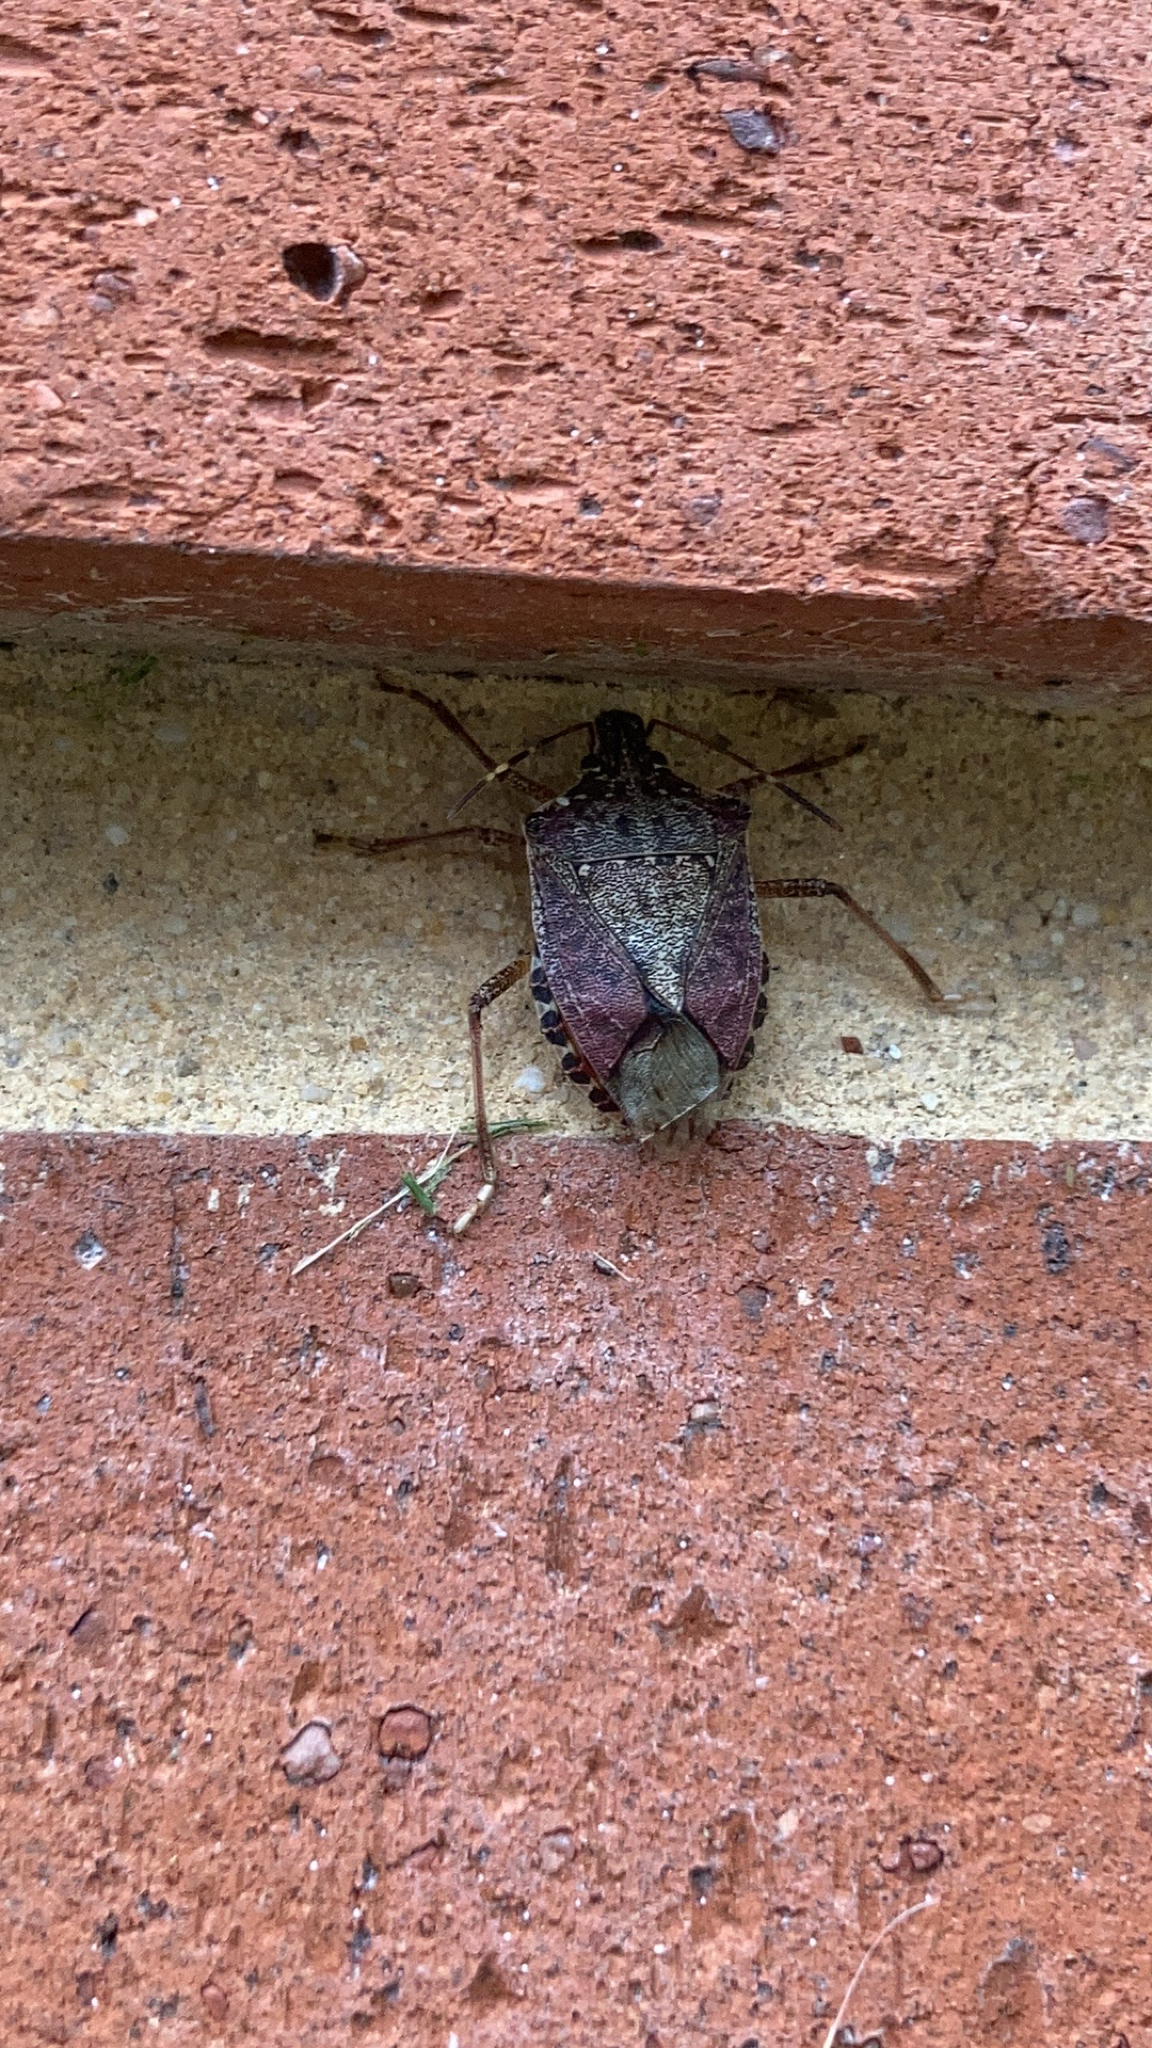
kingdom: Animalia
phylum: Arthropoda
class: Insecta
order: Hemiptera
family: Pentatomidae
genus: Halyomorpha
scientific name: Halyomorpha halys
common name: Brown marmorated stink bug
